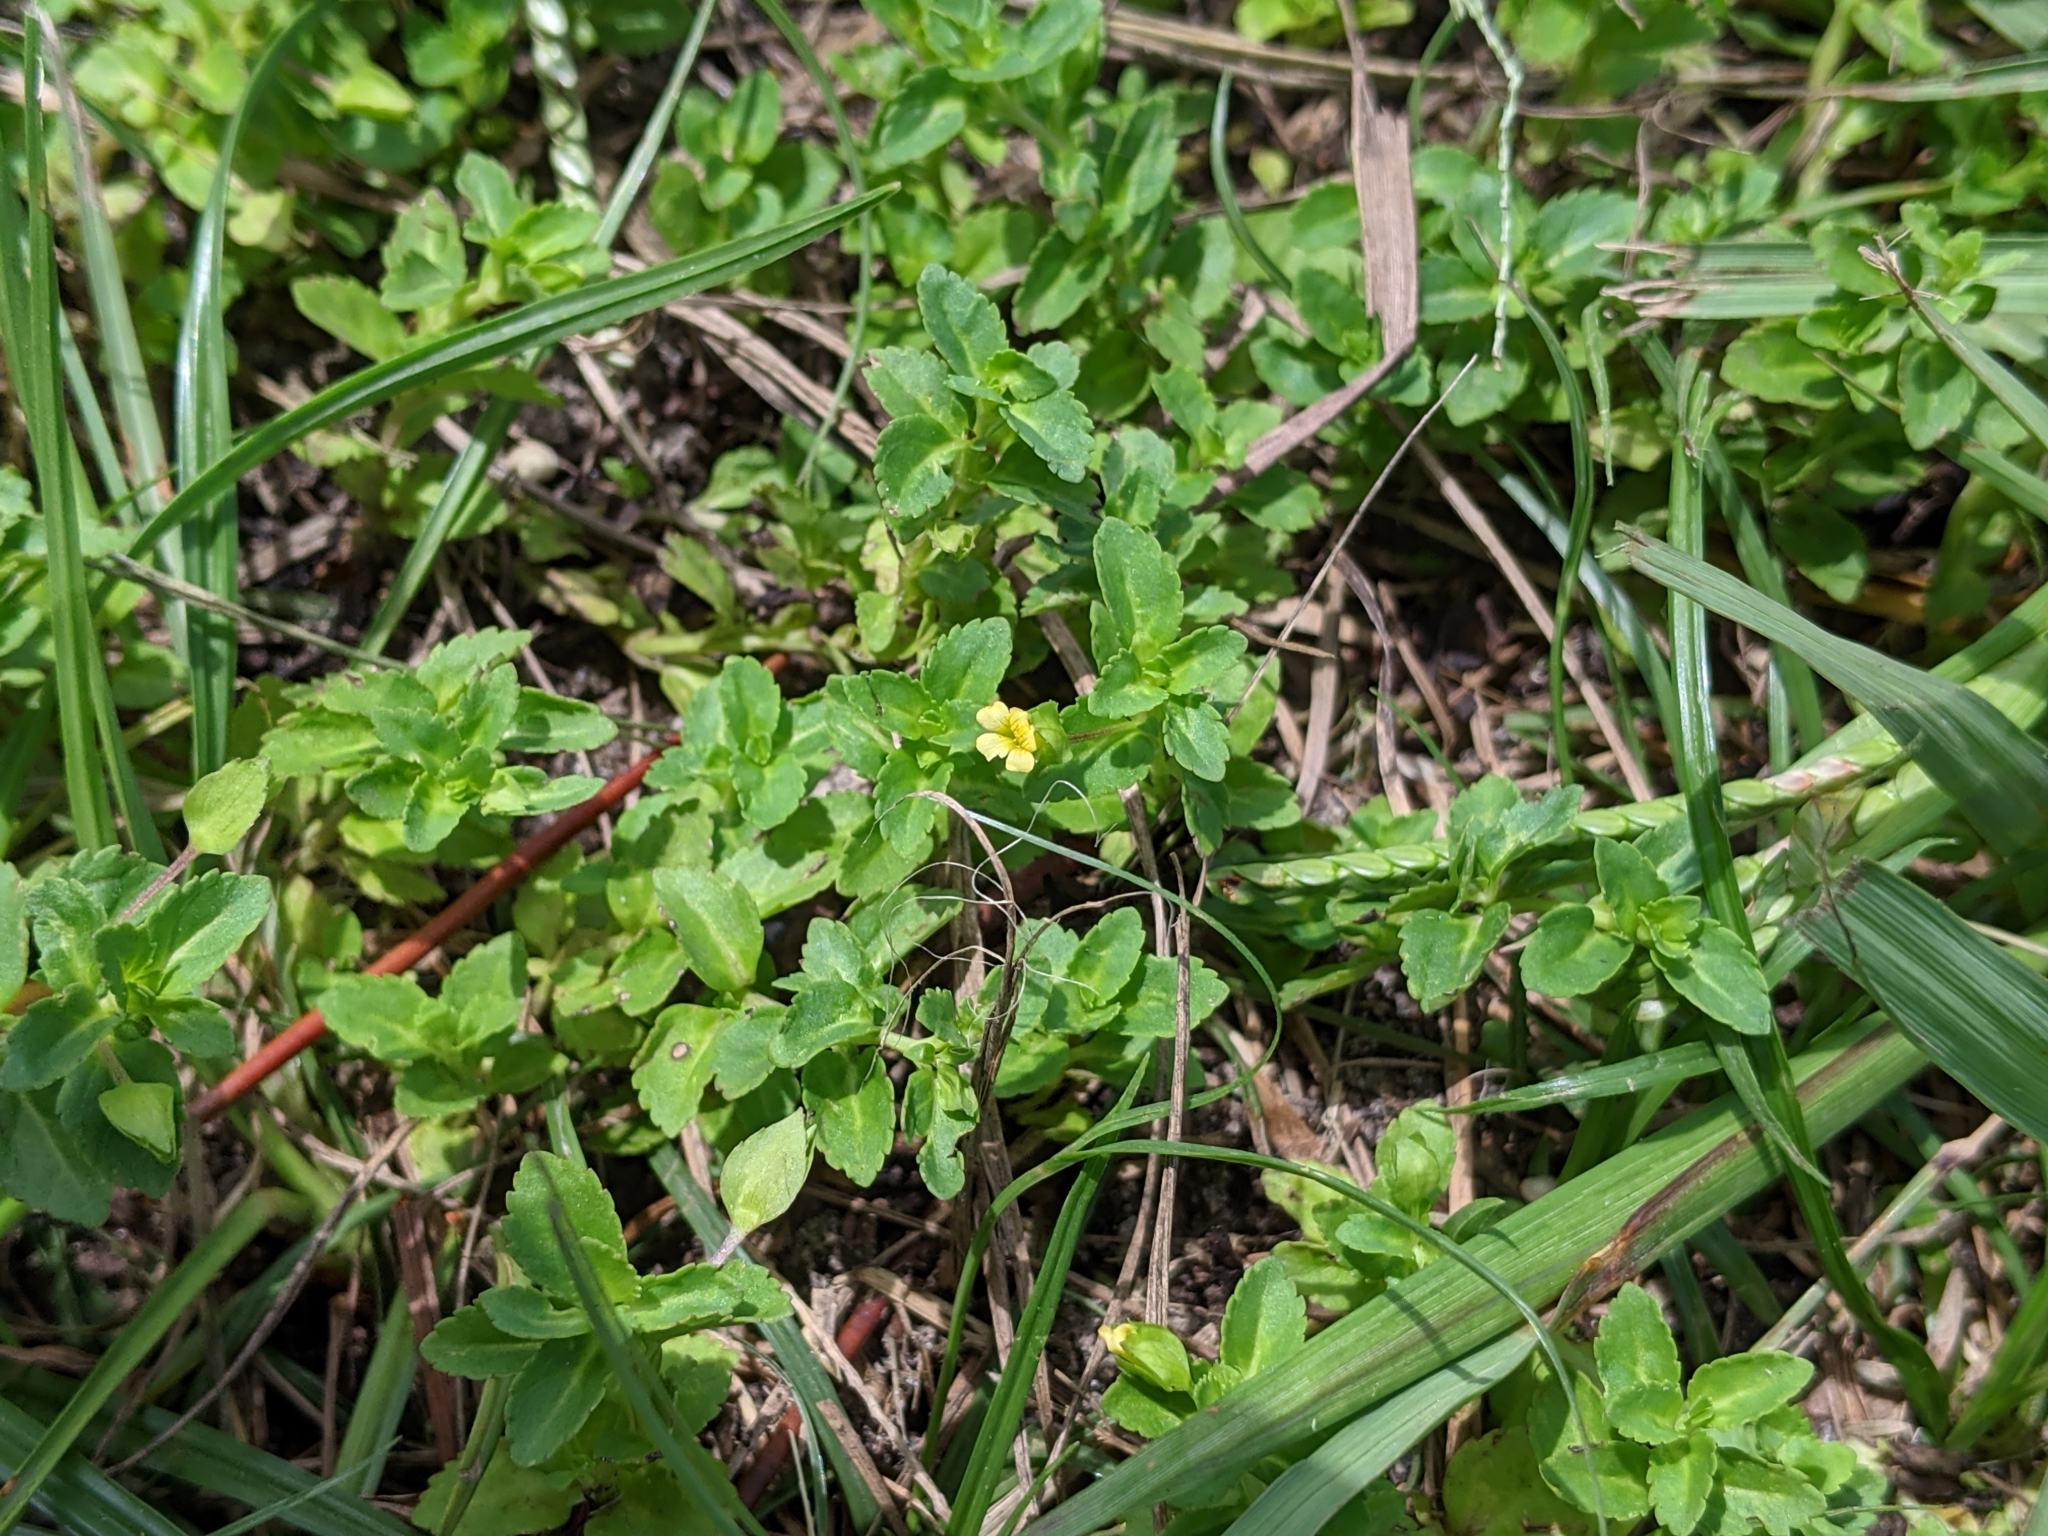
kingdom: Plantae
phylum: Tracheophyta
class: Magnoliopsida
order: Lamiales
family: Plantaginaceae
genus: Mecardonia
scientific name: Mecardonia procumbens
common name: Baby jump-up
